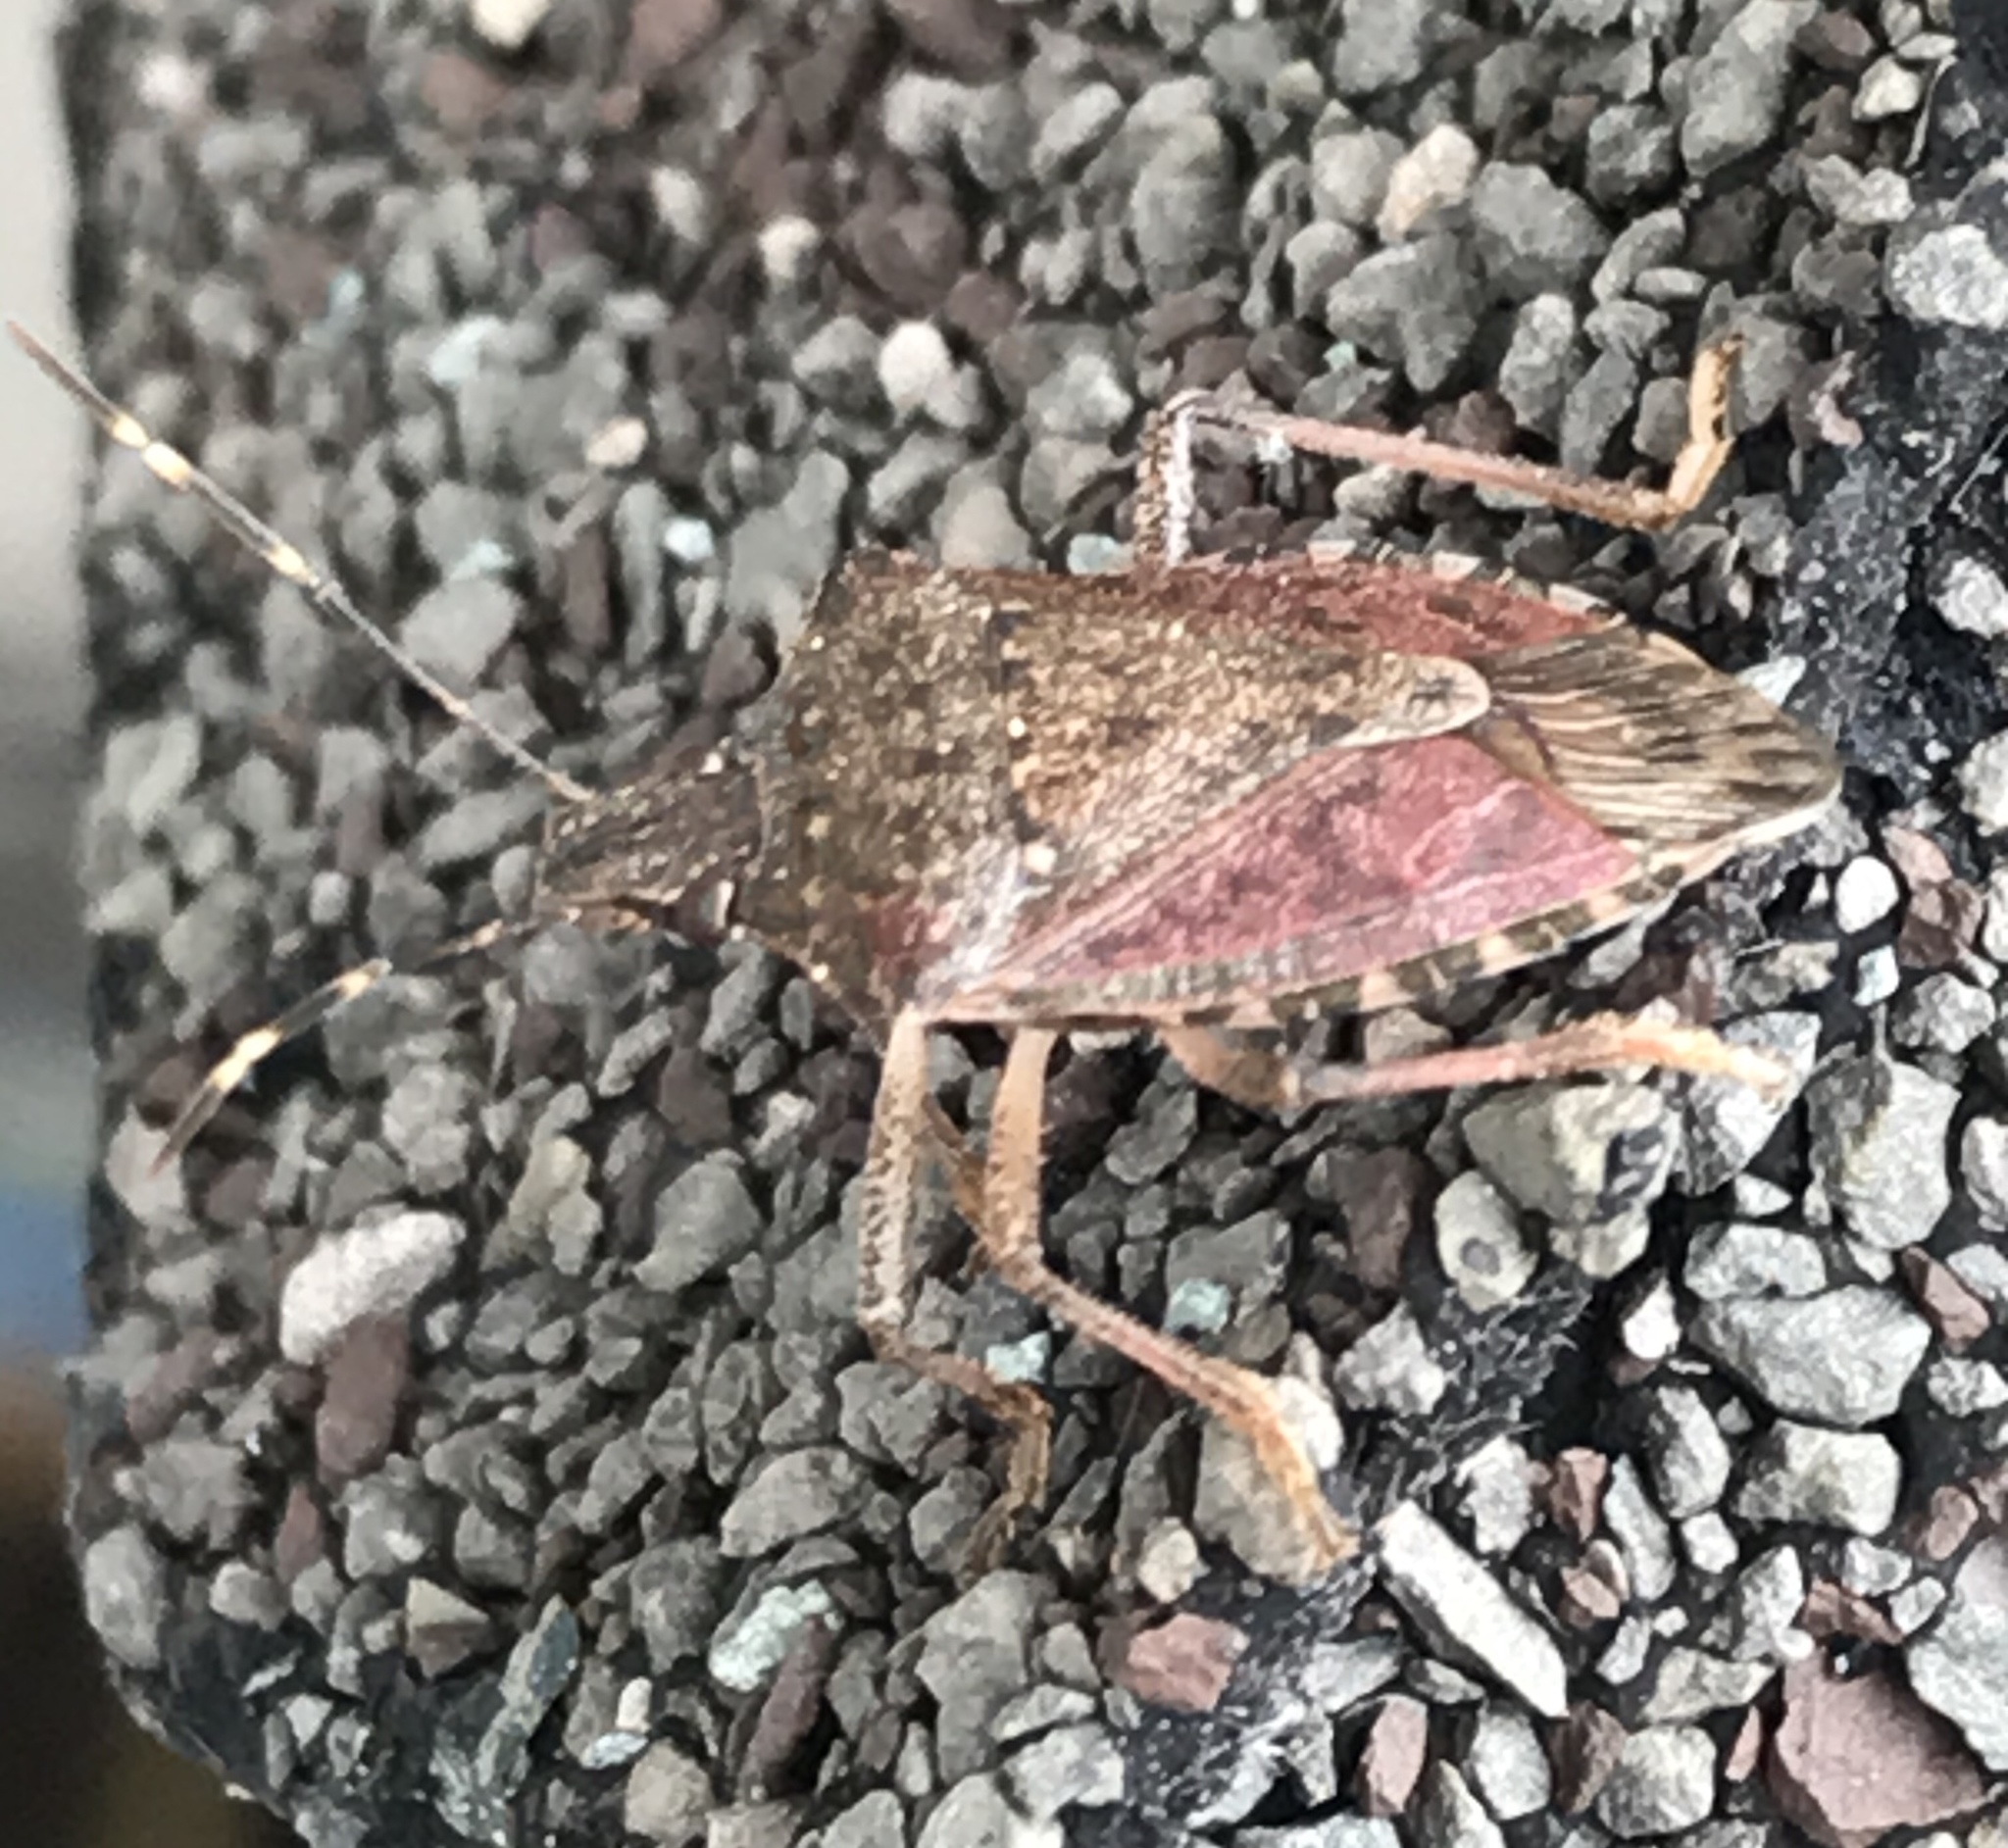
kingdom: Animalia
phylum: Arthropoda
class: Insecta
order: Hemiptera
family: Pentatomidae
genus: Halyomorpha
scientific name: Halyomorpha halys
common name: Brown marmorated stink bug
